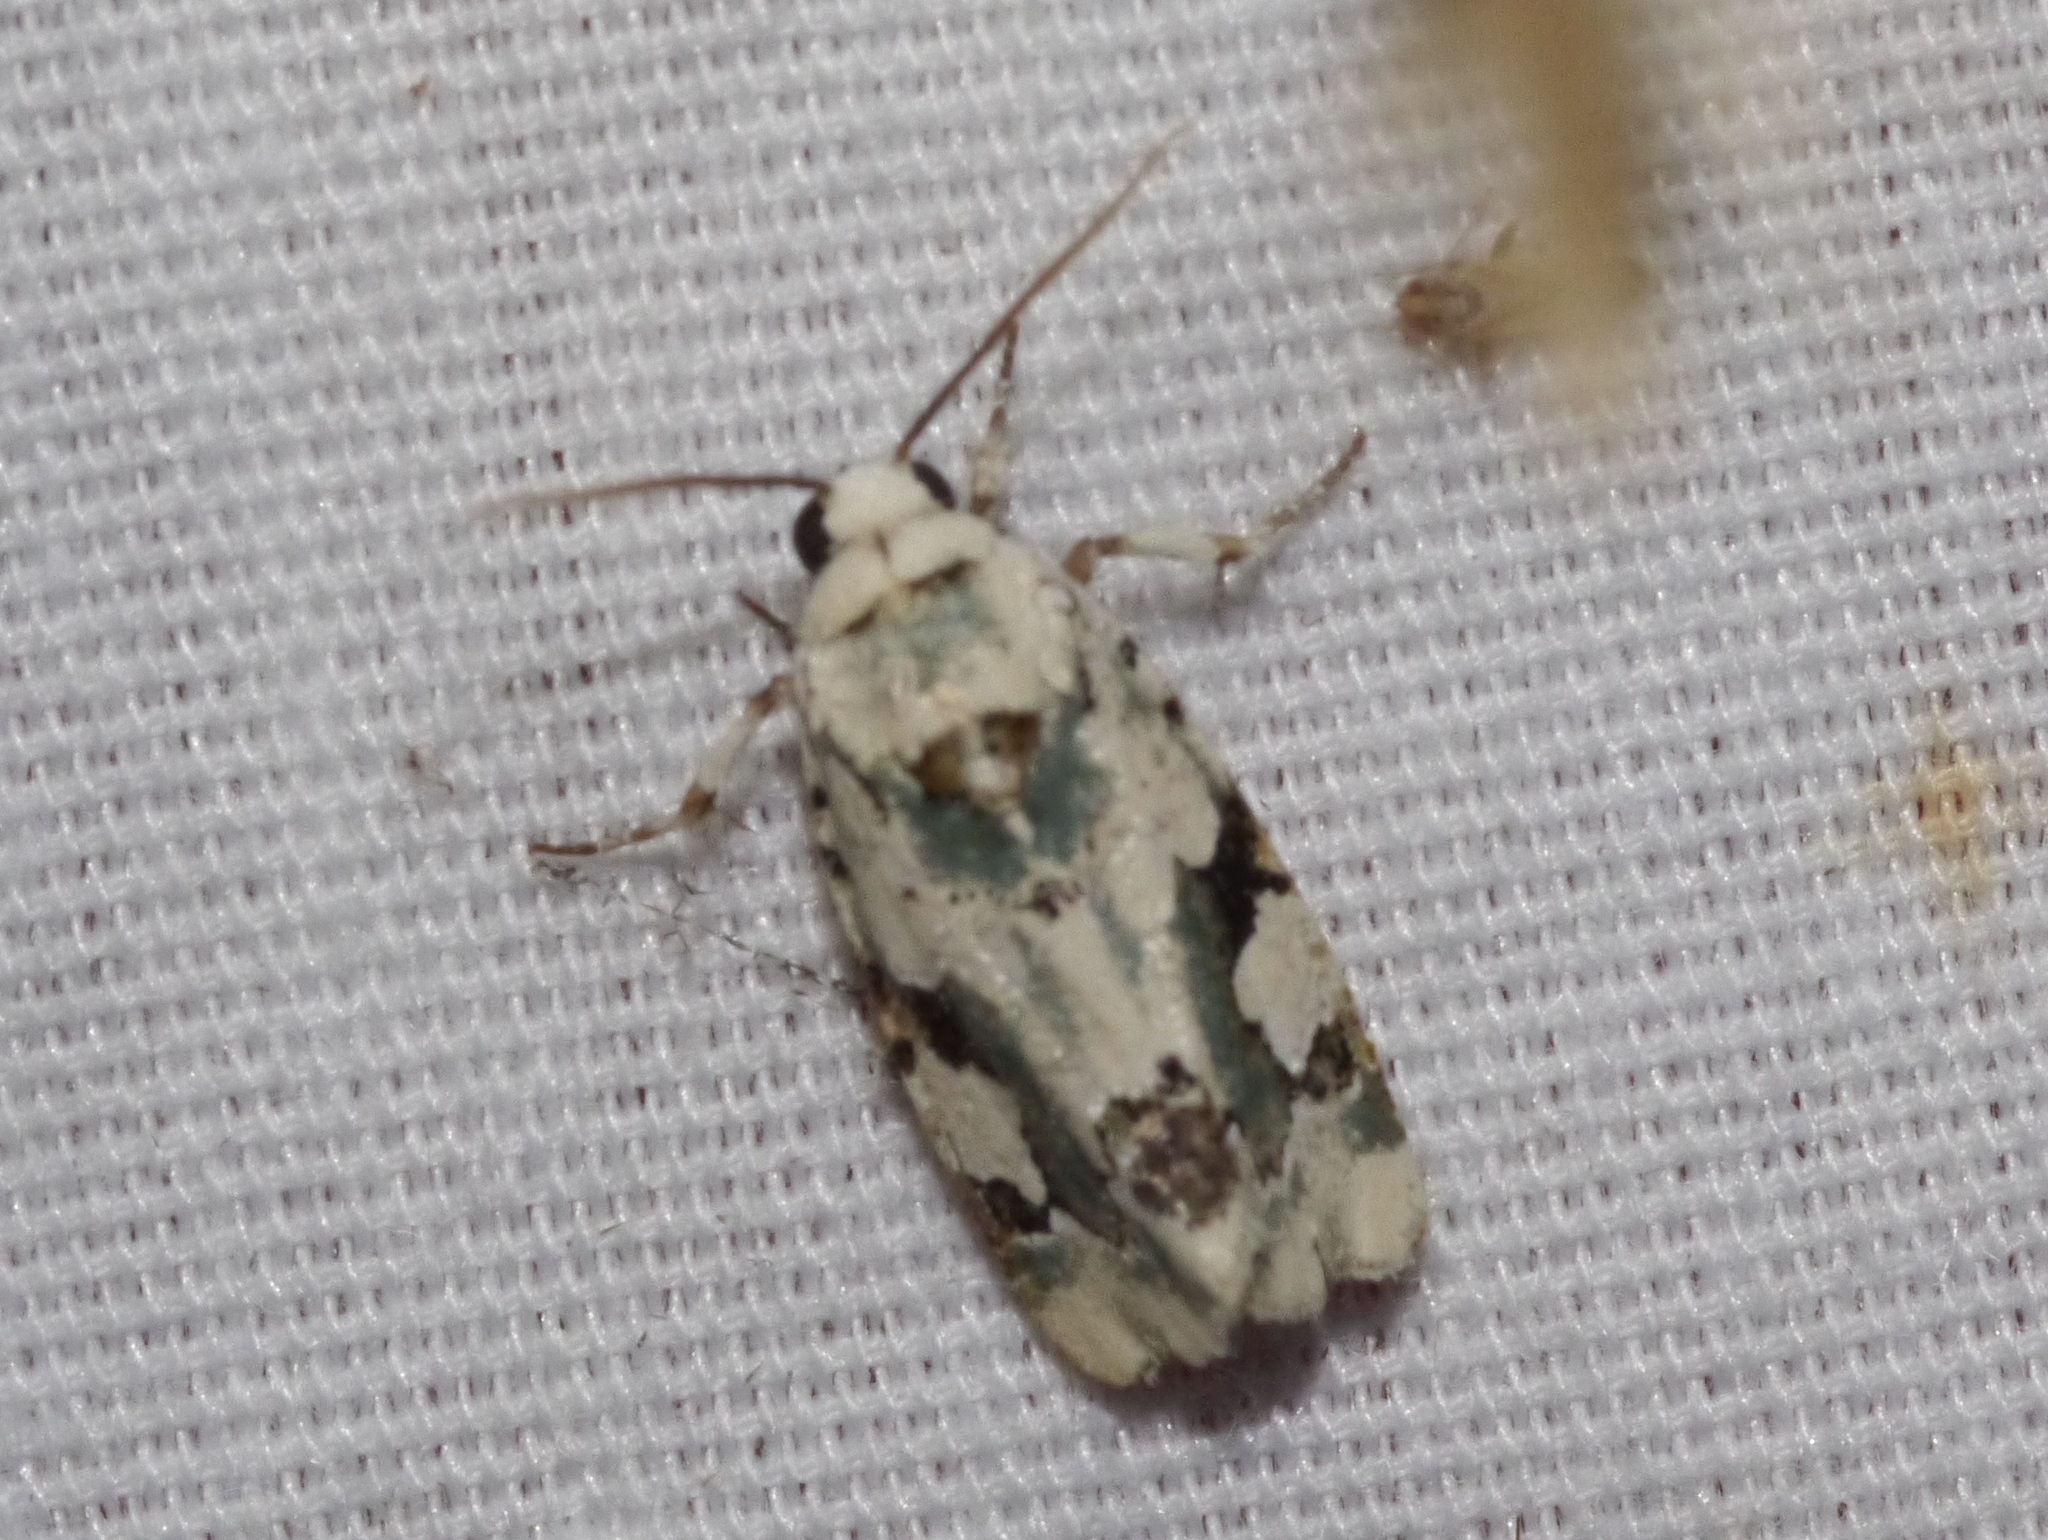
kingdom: Animalia
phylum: Arthropoda
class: Insecta
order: Lepidoptera
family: Noctuidae
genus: Emarginea
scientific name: Emarginea percara
